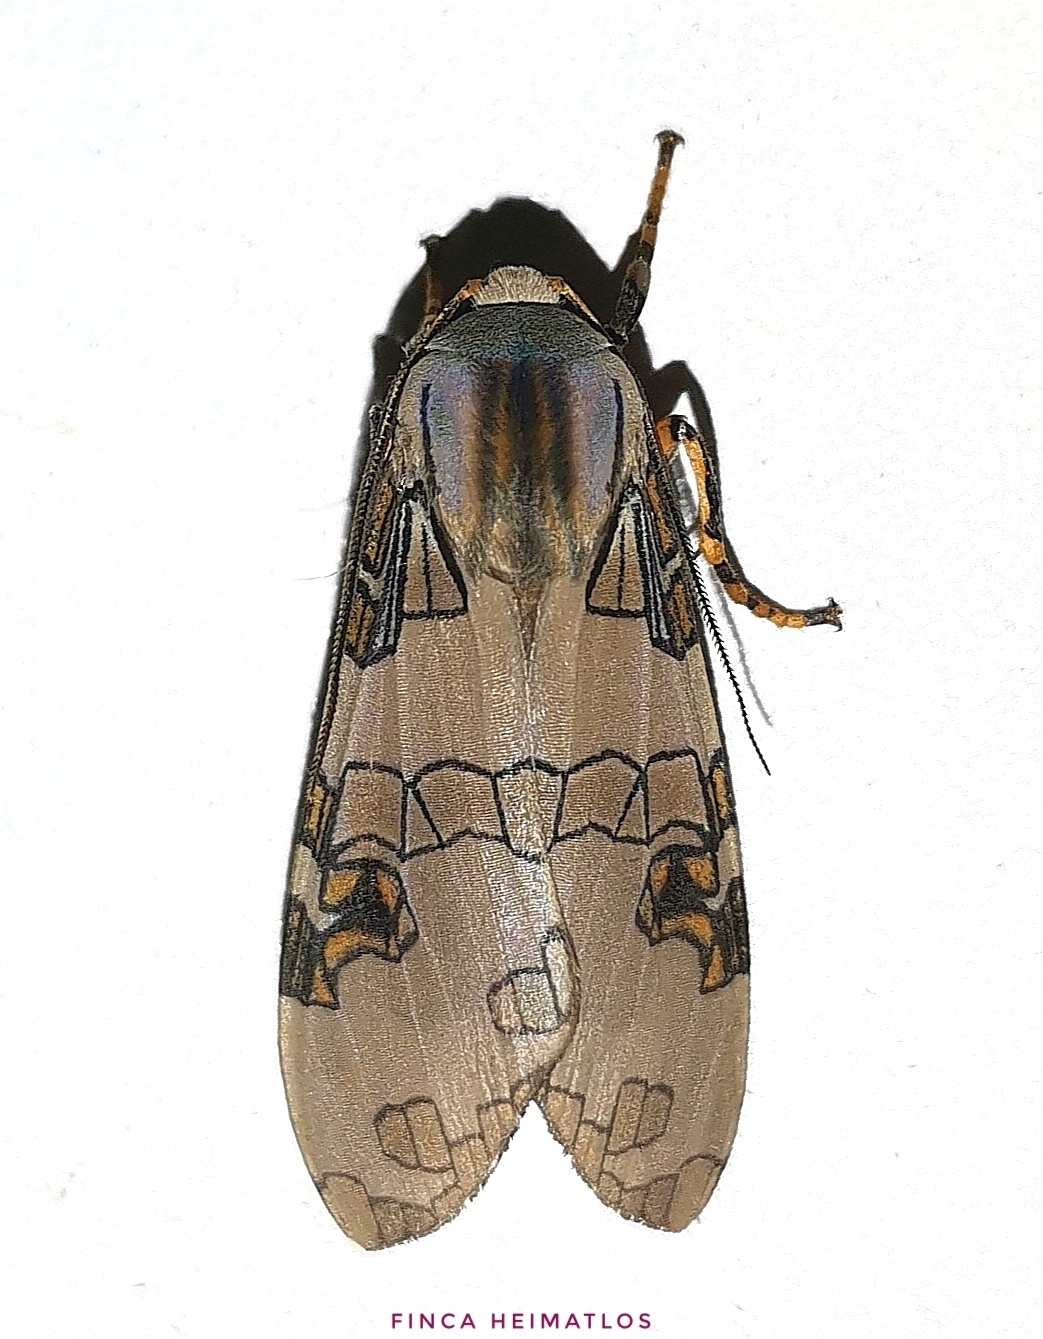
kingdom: Animalia
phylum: Arthropoda
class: Insecta
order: Lepidoptera
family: Erebidae
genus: Halysidota
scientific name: Halysidota interlineata
